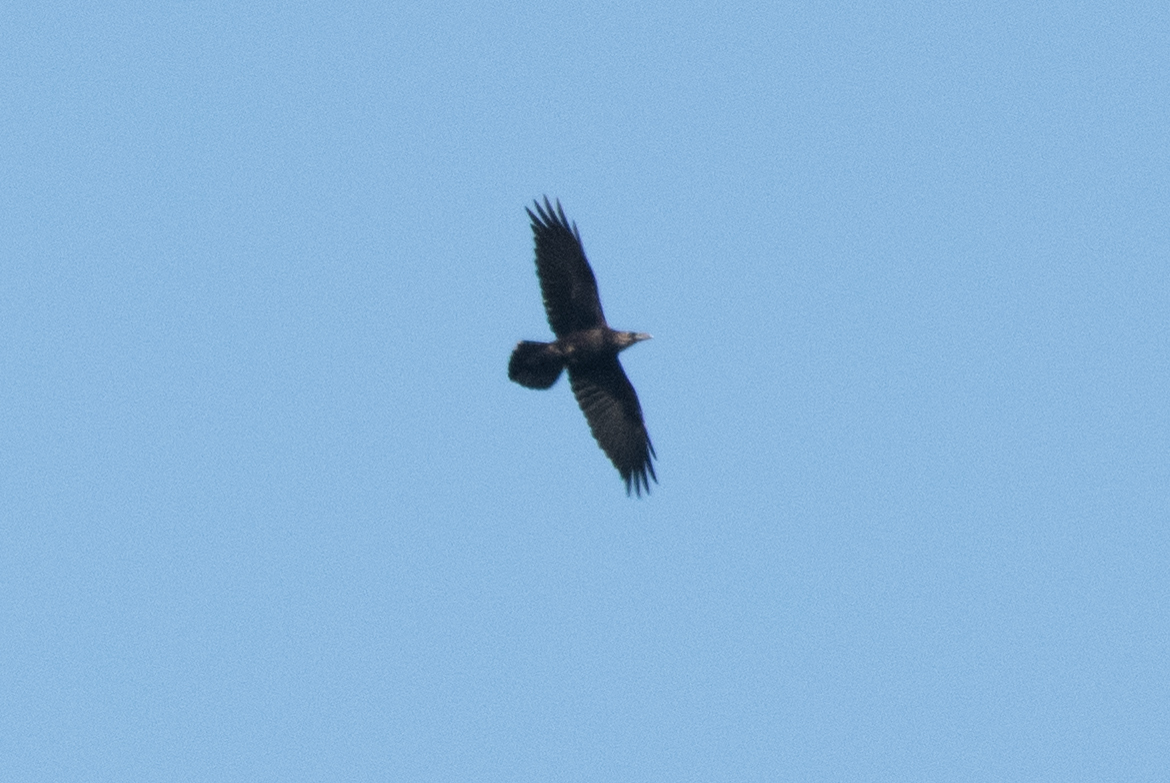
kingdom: Animalia
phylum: Chordata
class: Aves
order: Passeriformes
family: Corvidae
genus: Corvus
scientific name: Corvus corax
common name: Common raven
